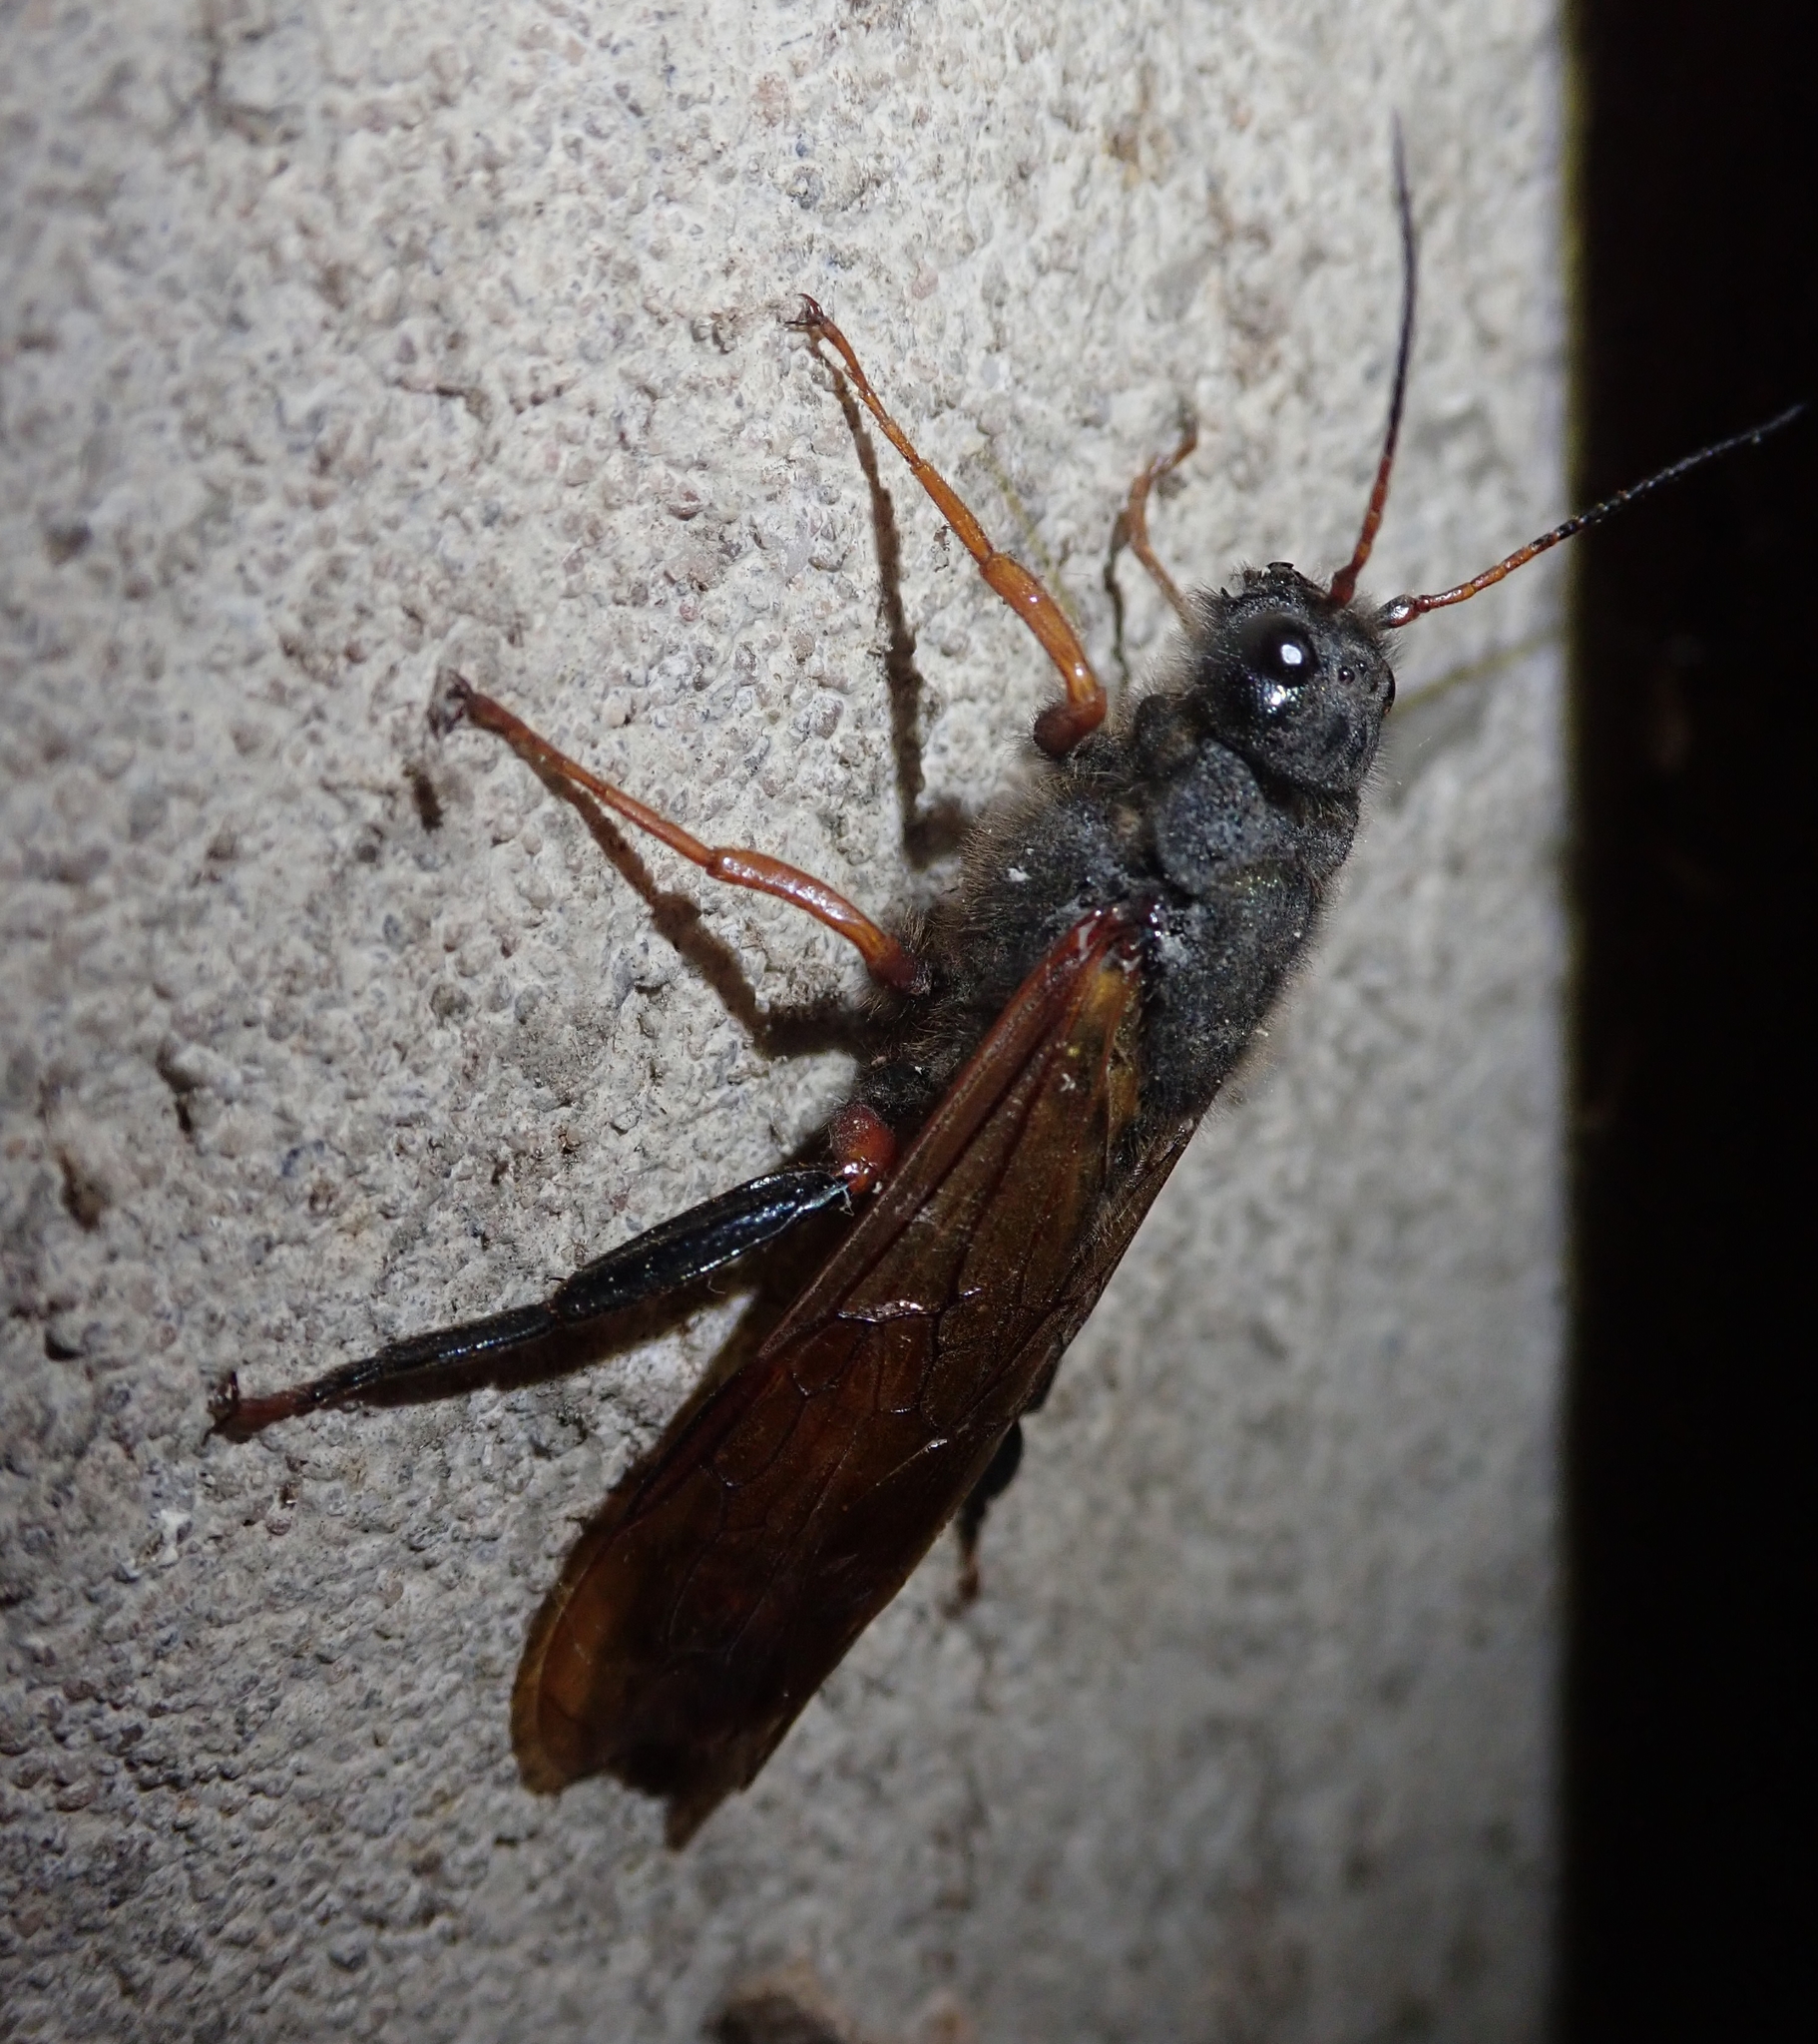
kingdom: Animalia
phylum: Arthropoda
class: Insecta
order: Hymenoptera
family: Siricidae
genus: Sirex
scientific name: Sirex juvencus
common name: Blue horntail
